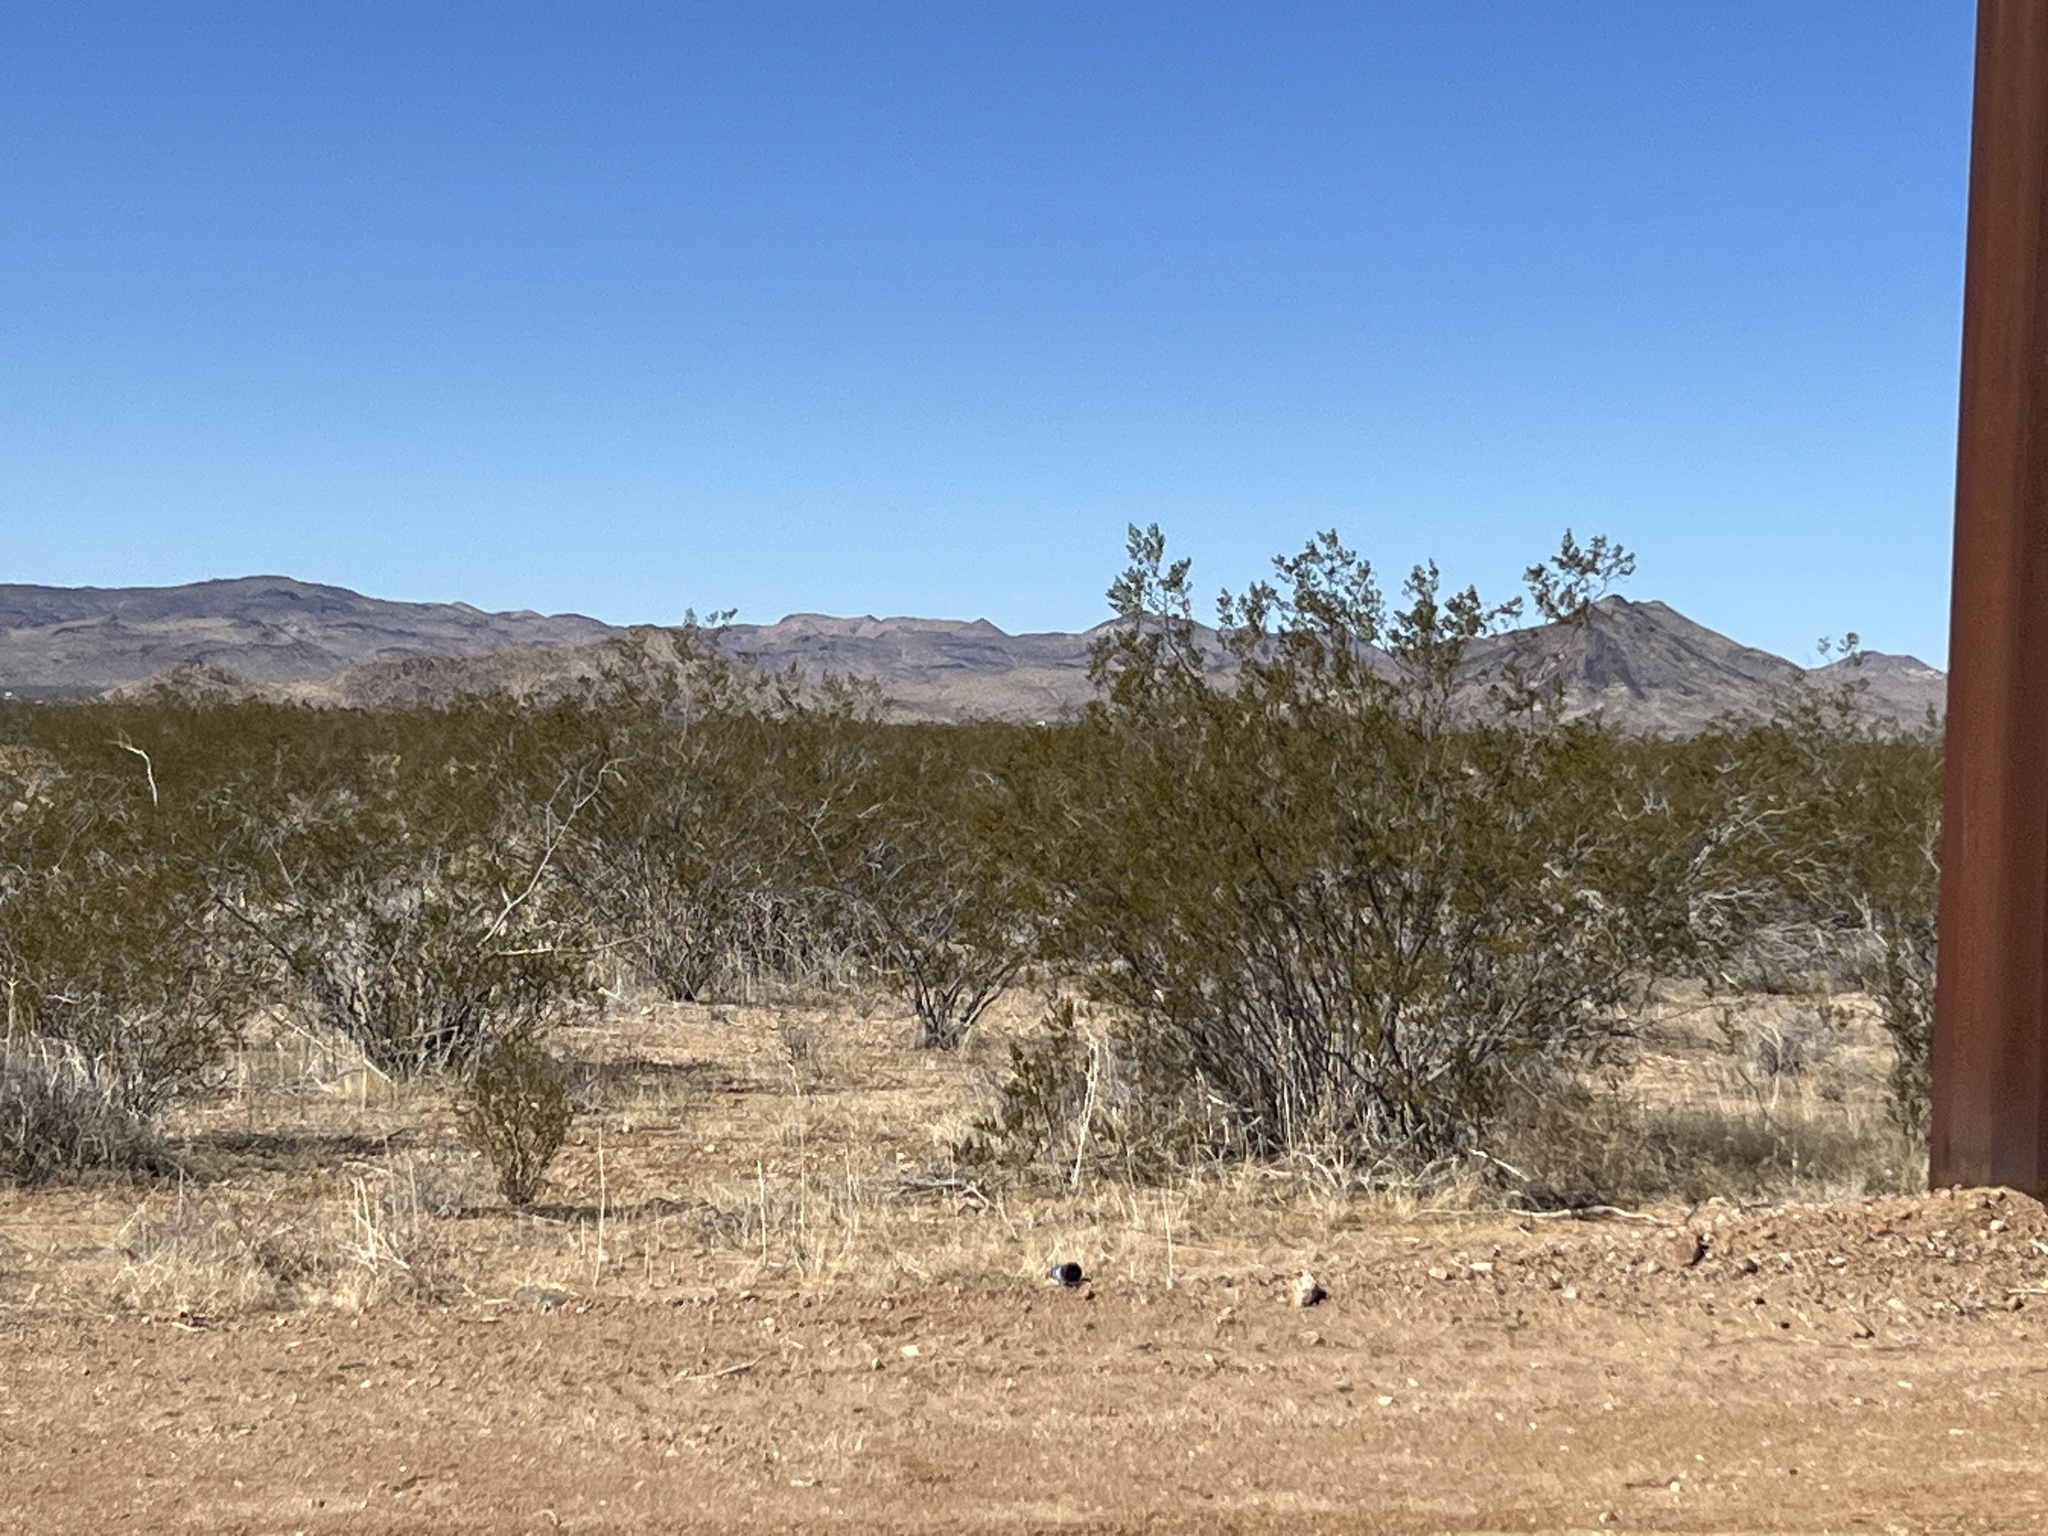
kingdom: Plantae
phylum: Tracheophyta
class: Magnoliopsida
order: Zygophyllales
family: Zygophyllaceae
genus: Larrea
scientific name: Larrea tridentata
